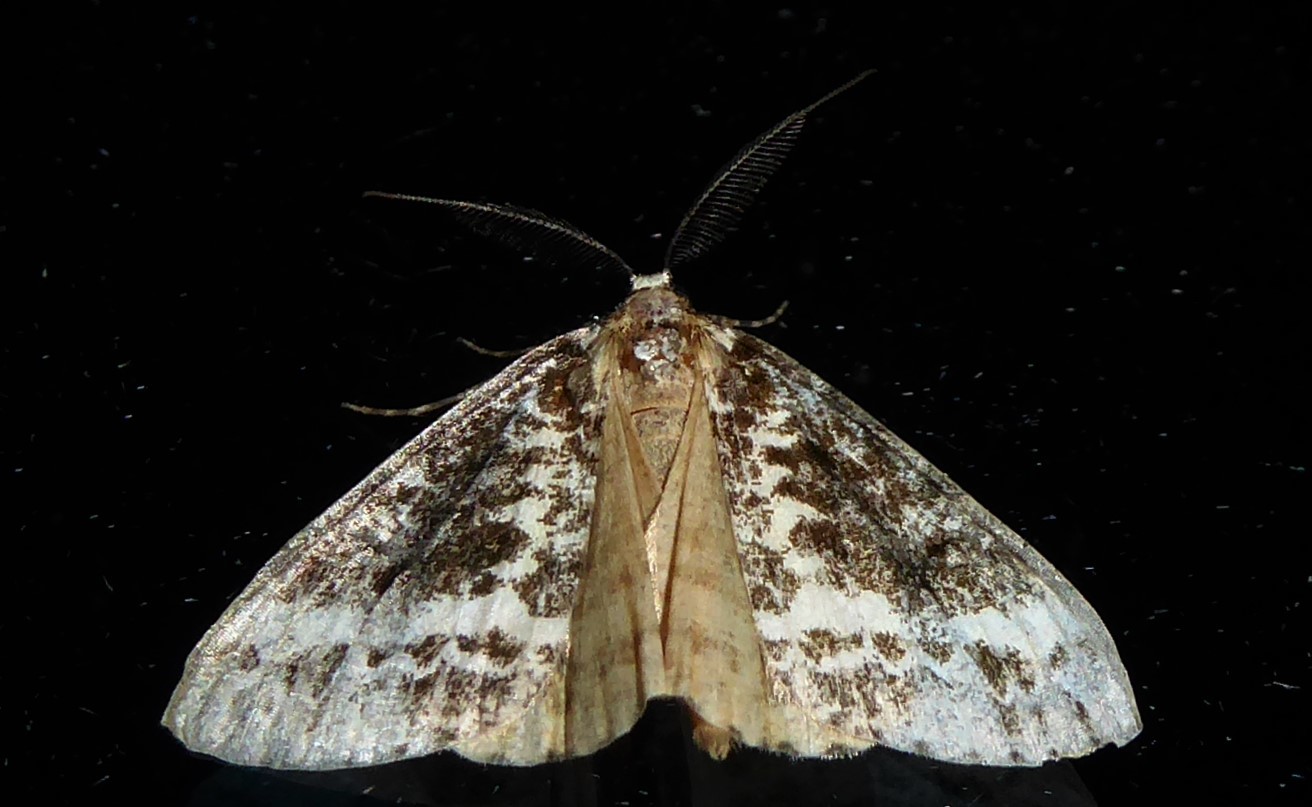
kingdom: Animalia
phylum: Arthropoda
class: Insecta
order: Lepidoptera
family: Geometridae
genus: Pseudocoremia
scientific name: Pseudocoremia leucelaea
